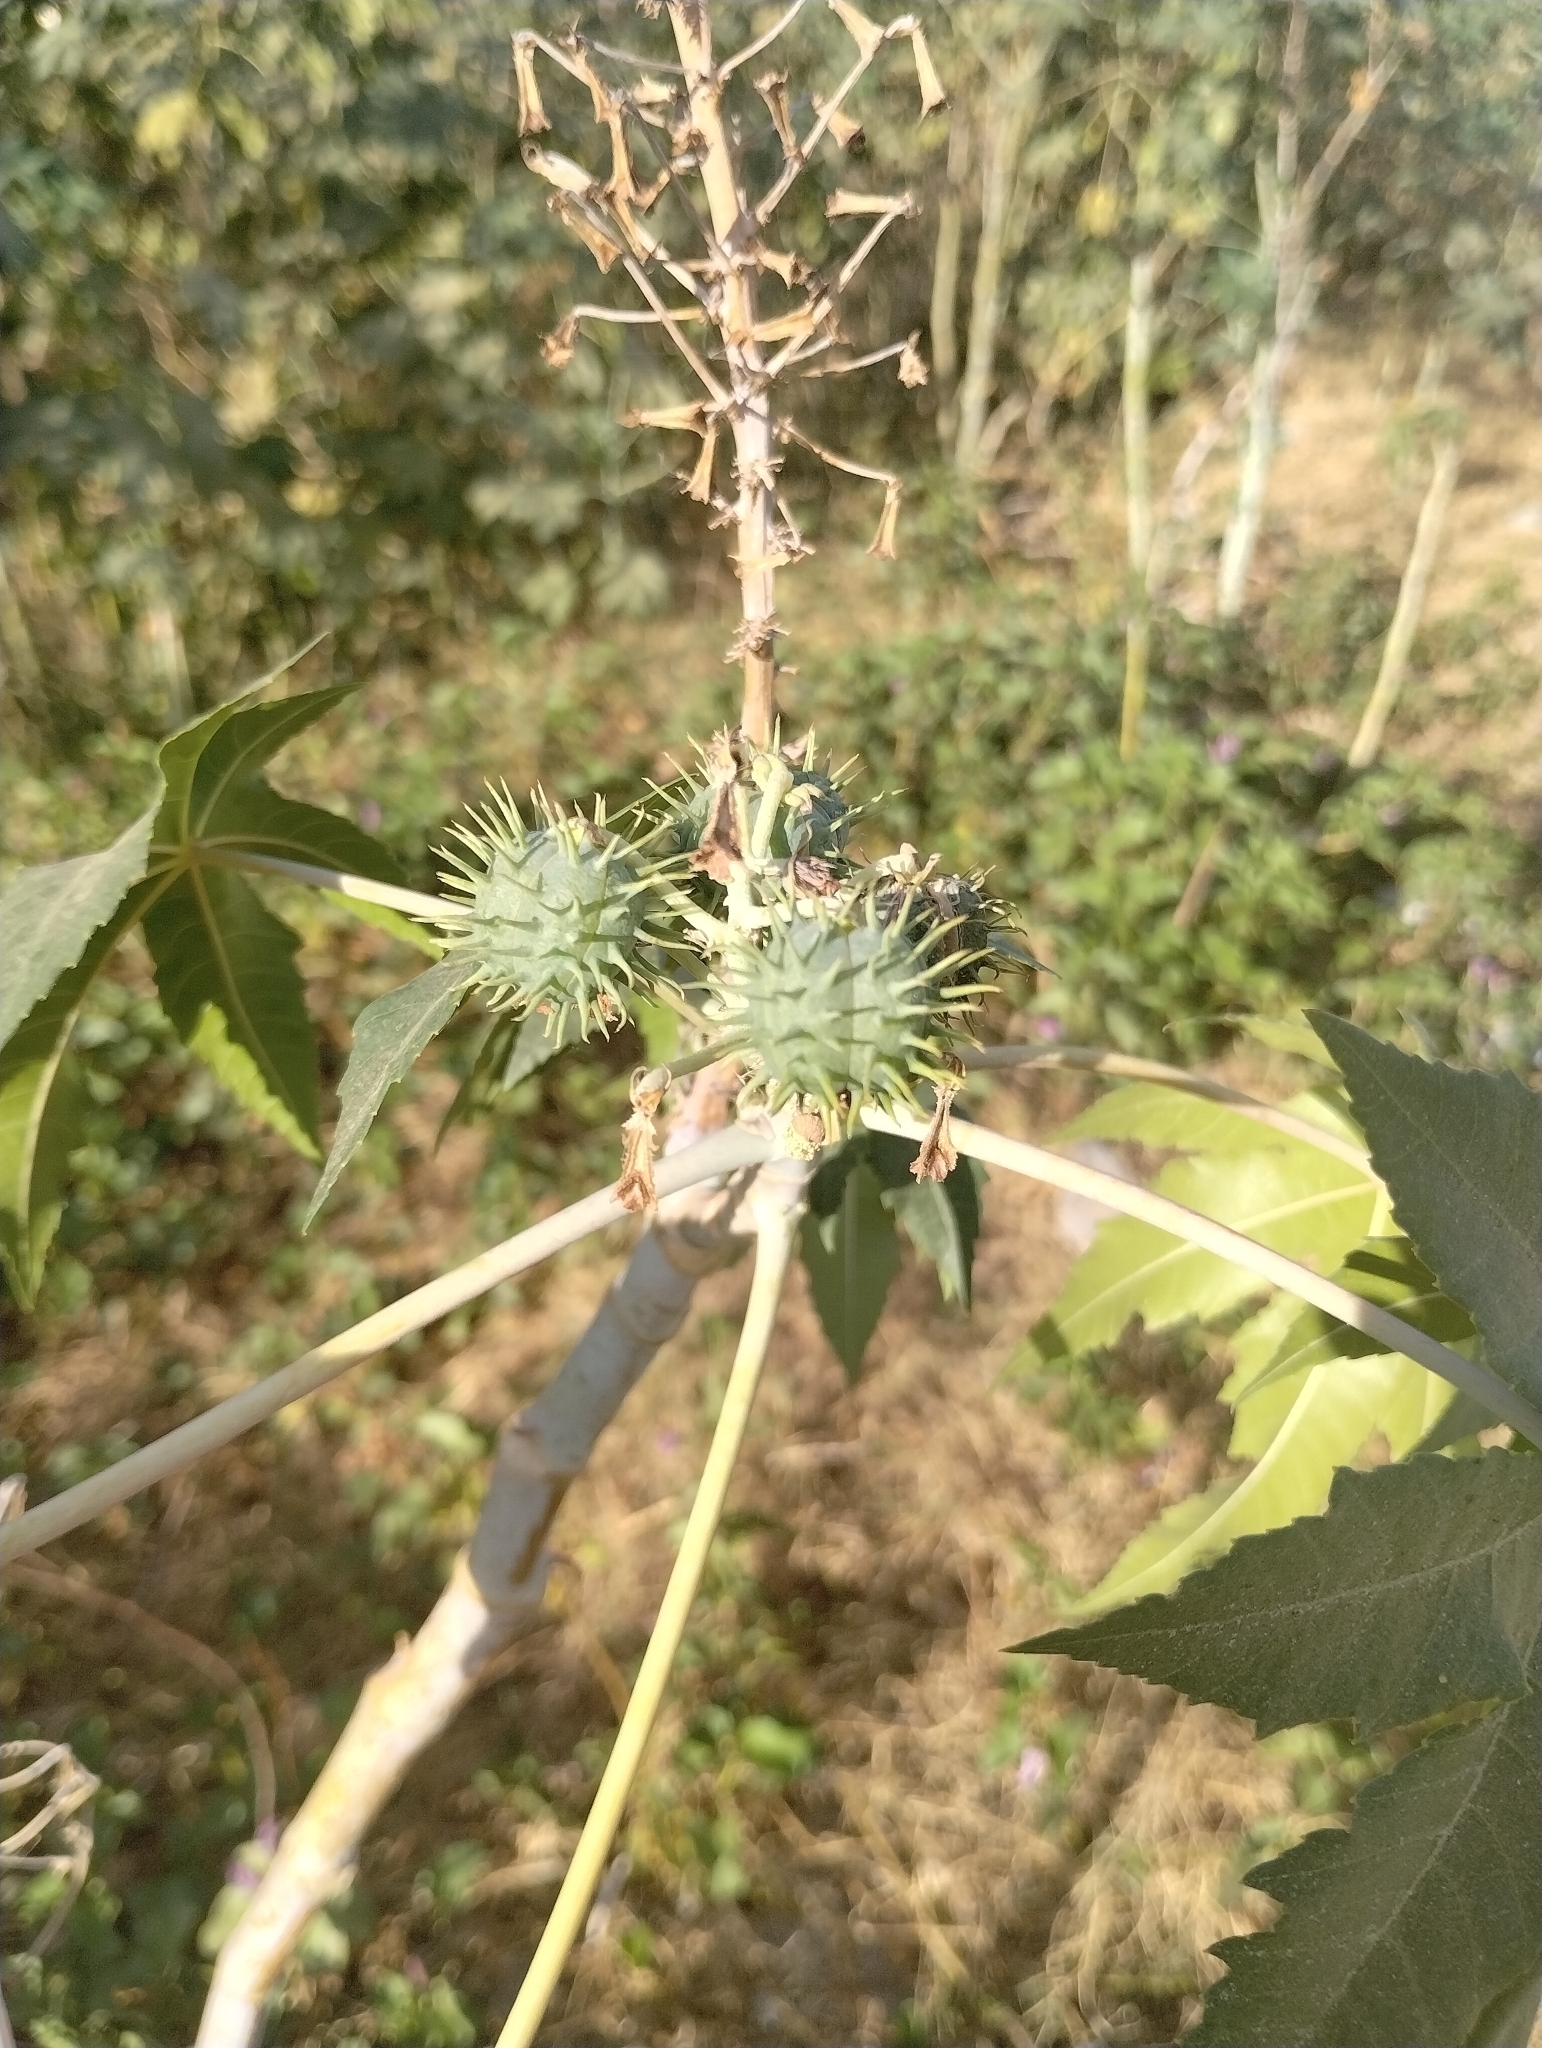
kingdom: Plantae
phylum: Tracheophyta
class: Magnoliopsida
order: Malpighiales
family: Euphorbiaceae
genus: Ricinus
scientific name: Ricinus communis
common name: Castor-oil-plant
